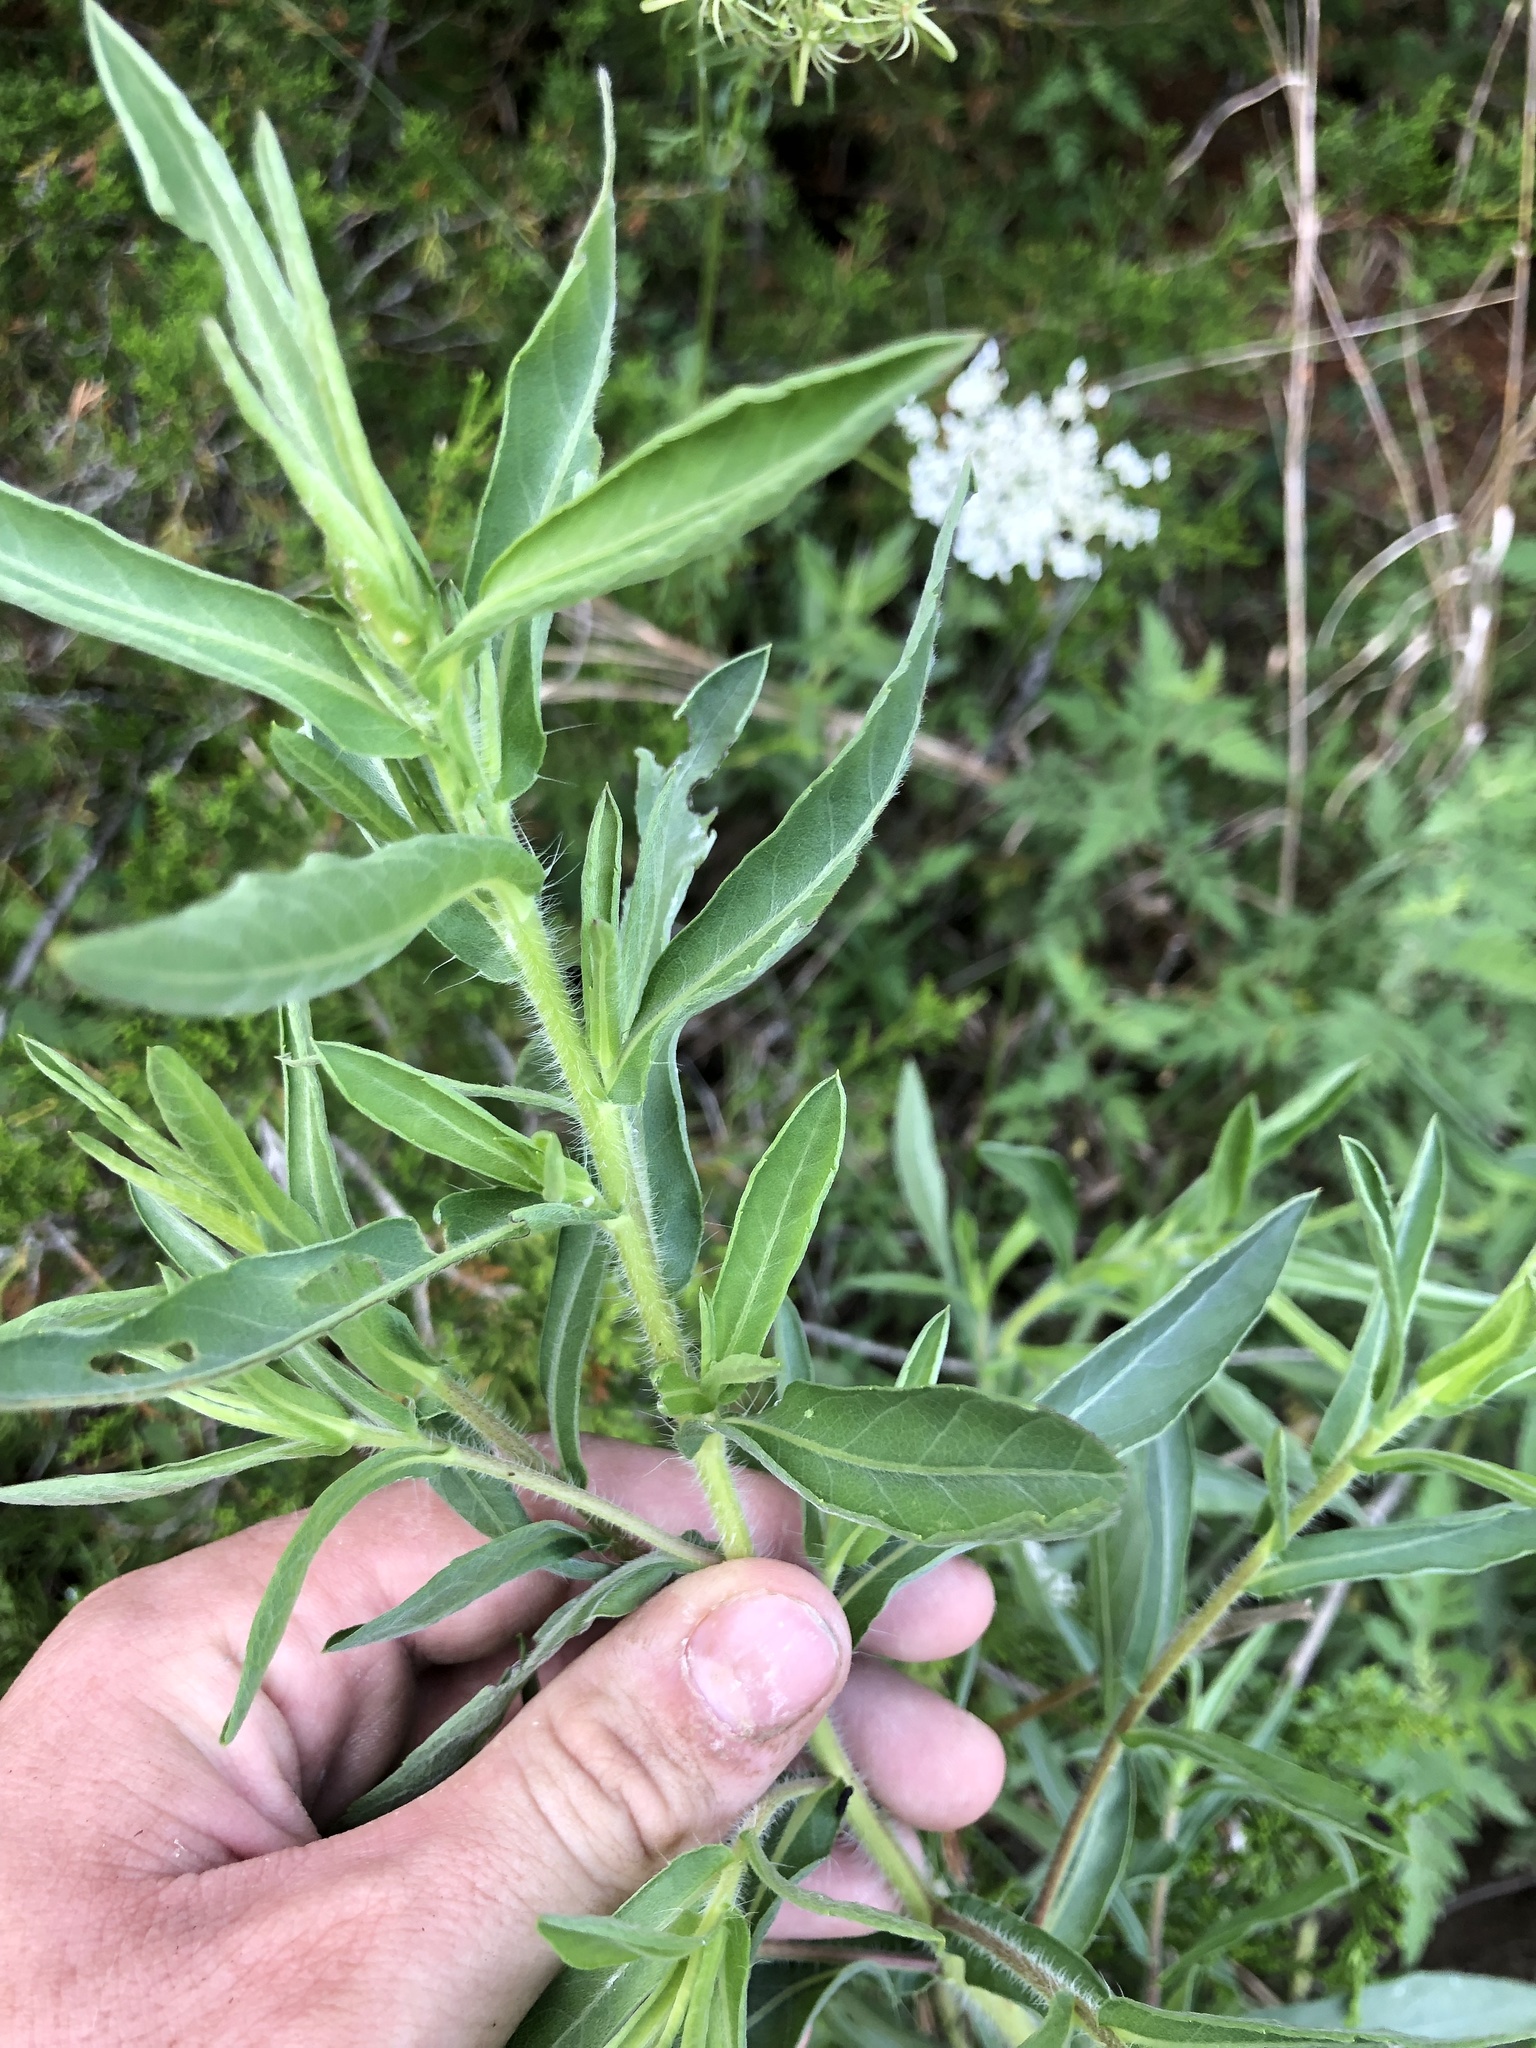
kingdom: Plantae
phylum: Tracheophyta
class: Magnoliopsida
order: Asterales
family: Asteraceae
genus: Heterotheca
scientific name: Heterotheca camporum
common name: Prairie golden-aster
